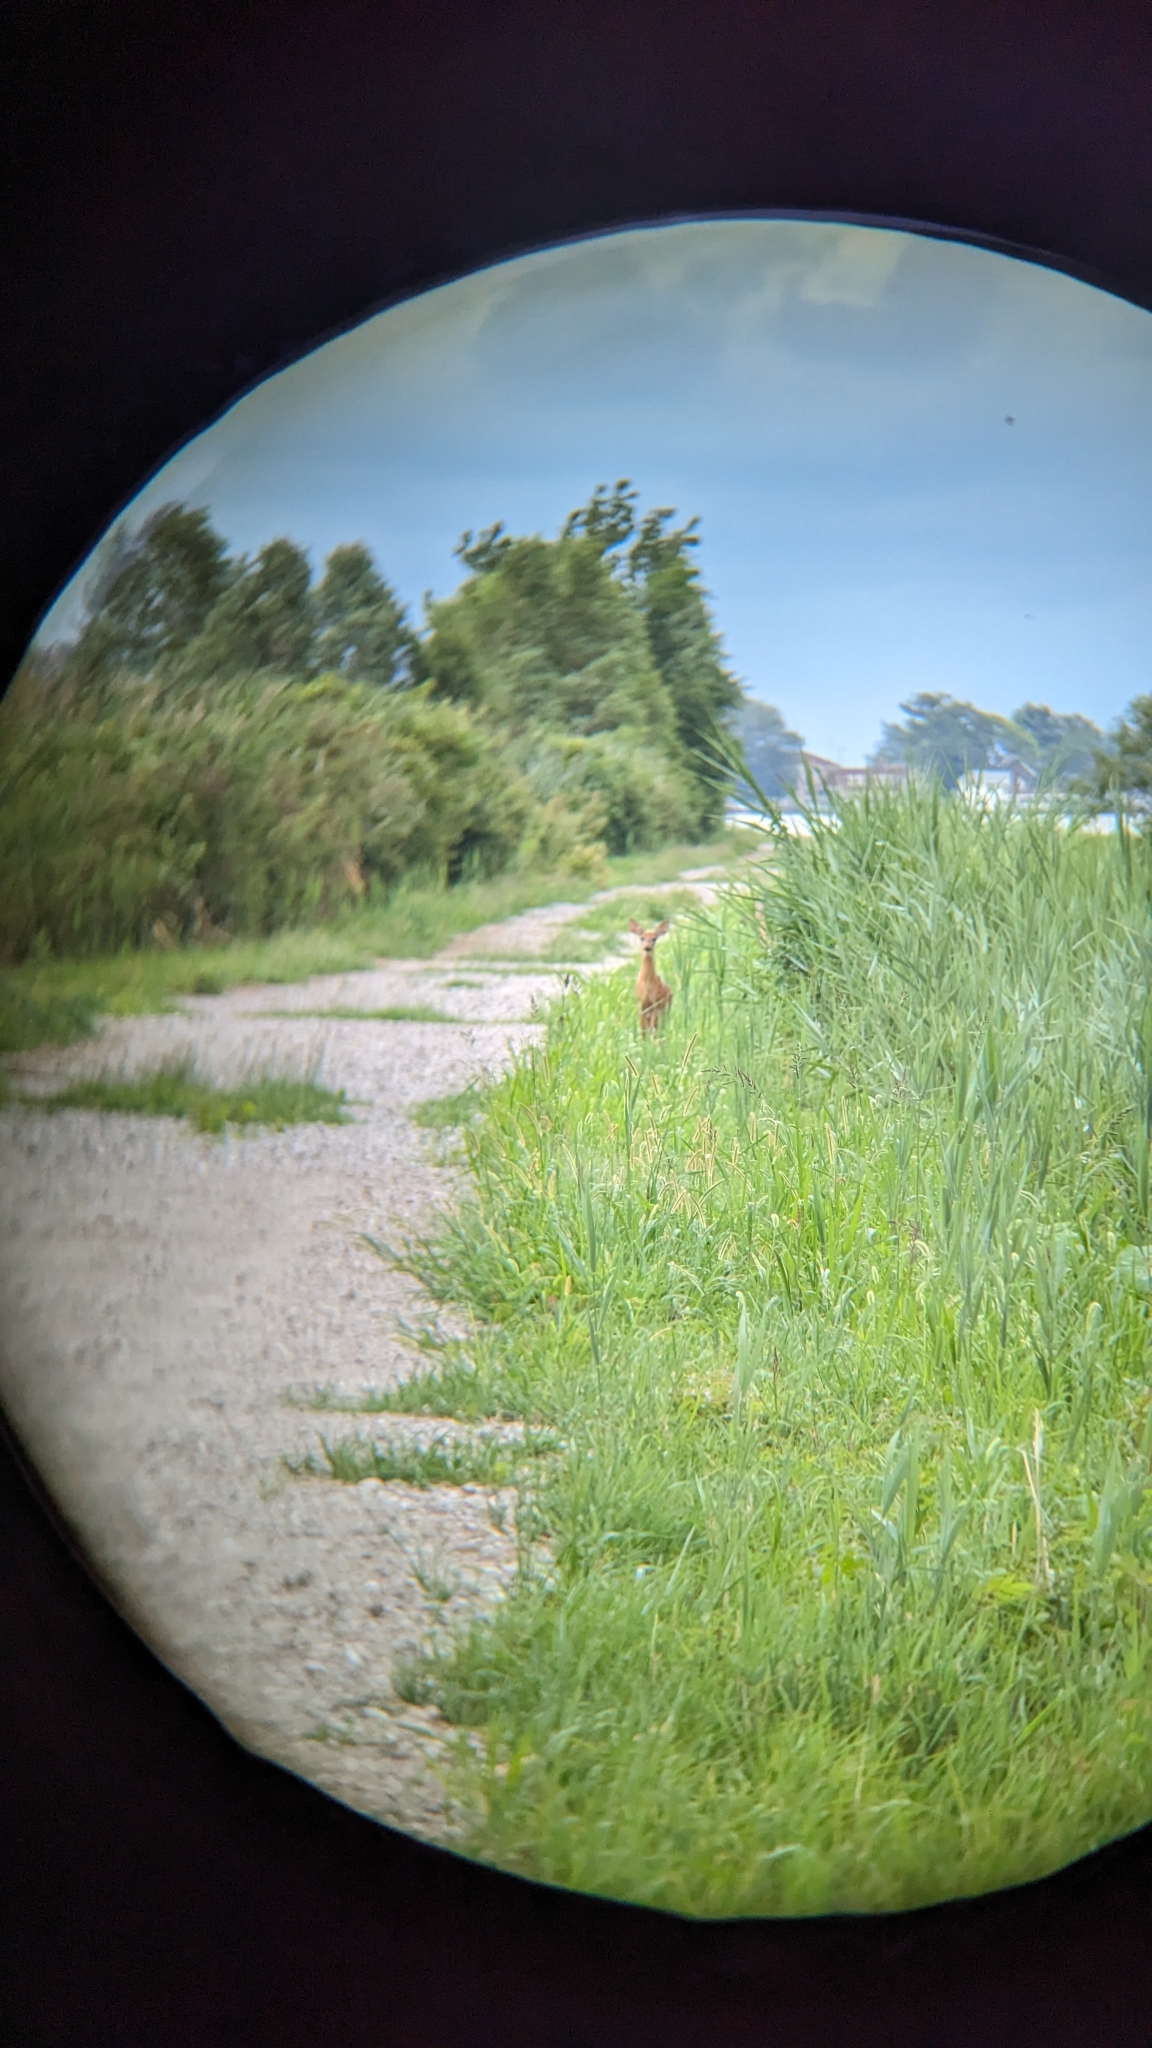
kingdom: Animalia
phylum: Chordata
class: Mammalia
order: Artiodactyla
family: Cervidae
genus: Odocoileus
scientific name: Odocoileus virginianus
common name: White-tailed deer
